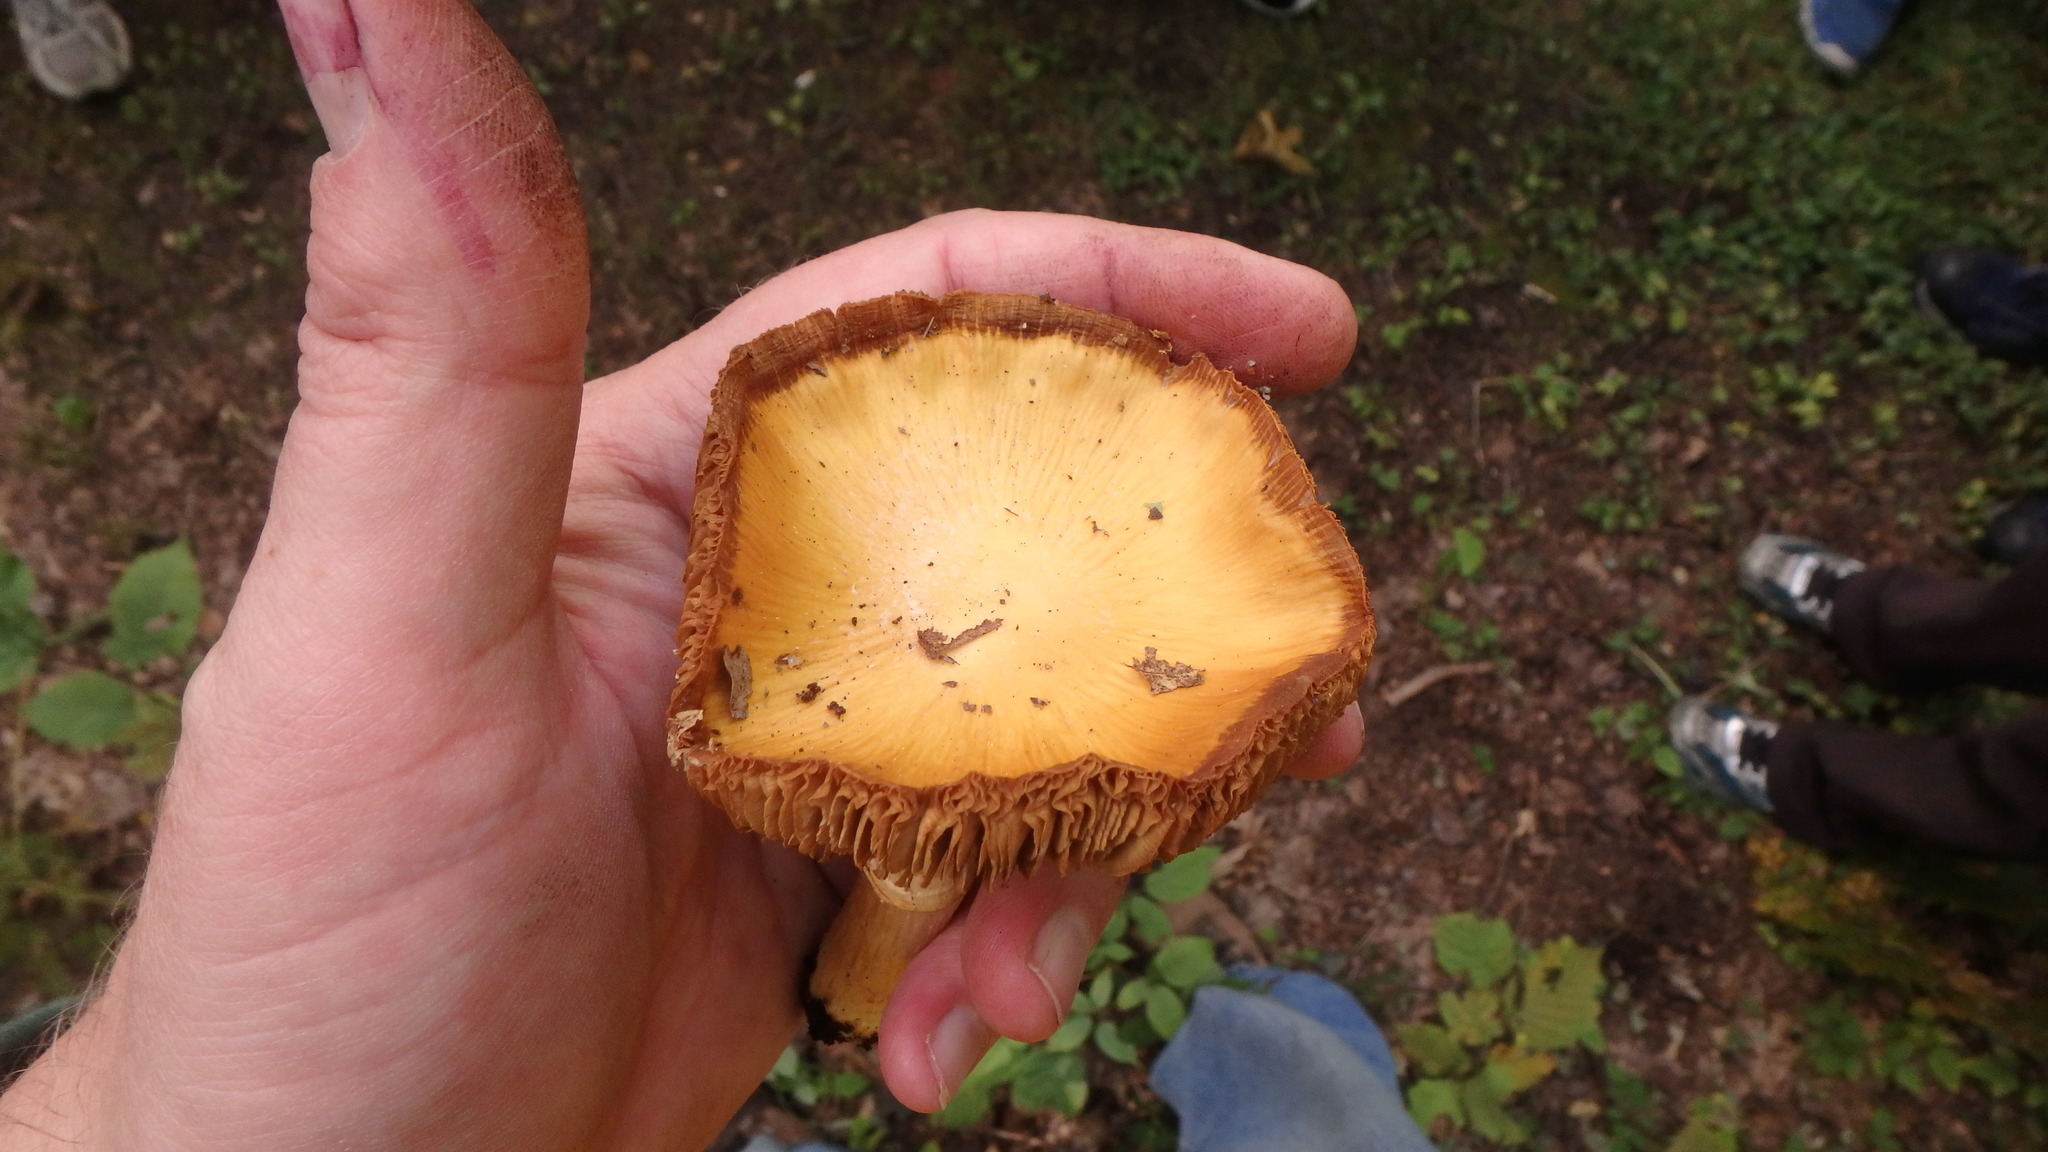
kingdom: Fungi
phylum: Basidiomycota
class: Agaricomycetes
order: Agaricales
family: Cortinariaceae
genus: Cortinarius
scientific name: Cortinarius caperatus
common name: The gypsy
